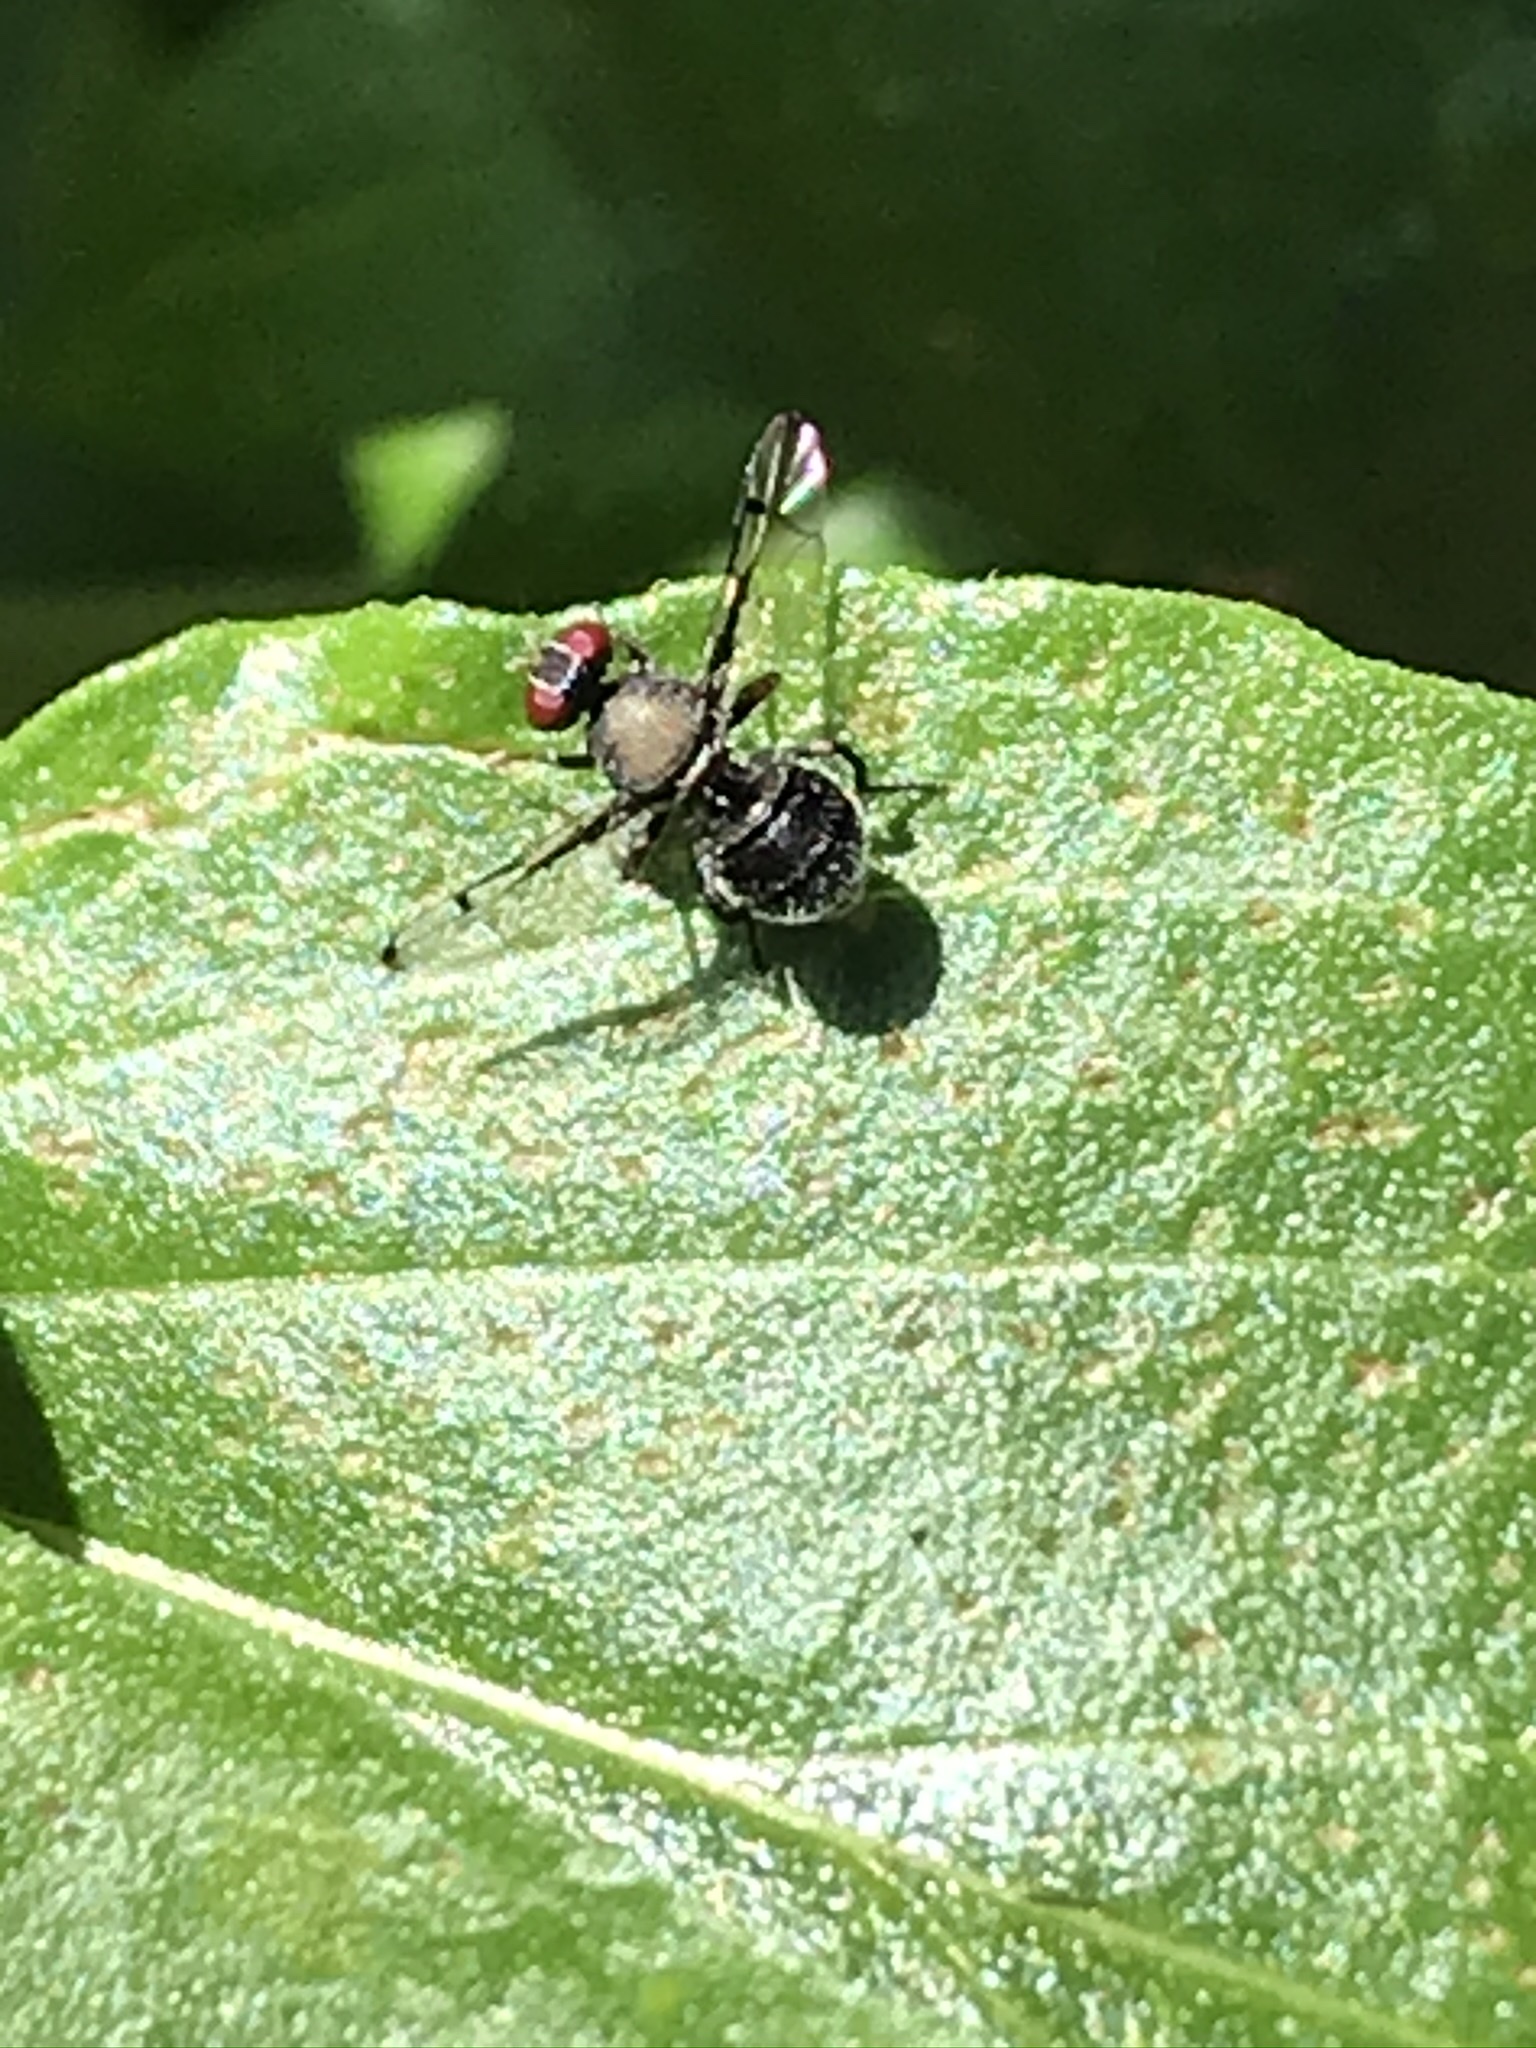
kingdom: Animalia
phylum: Arthropoda
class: Insecta
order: Diptera
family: Platystomatidae
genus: Pogonortalis
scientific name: Pogonortalis doclea
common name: Boatman fly
